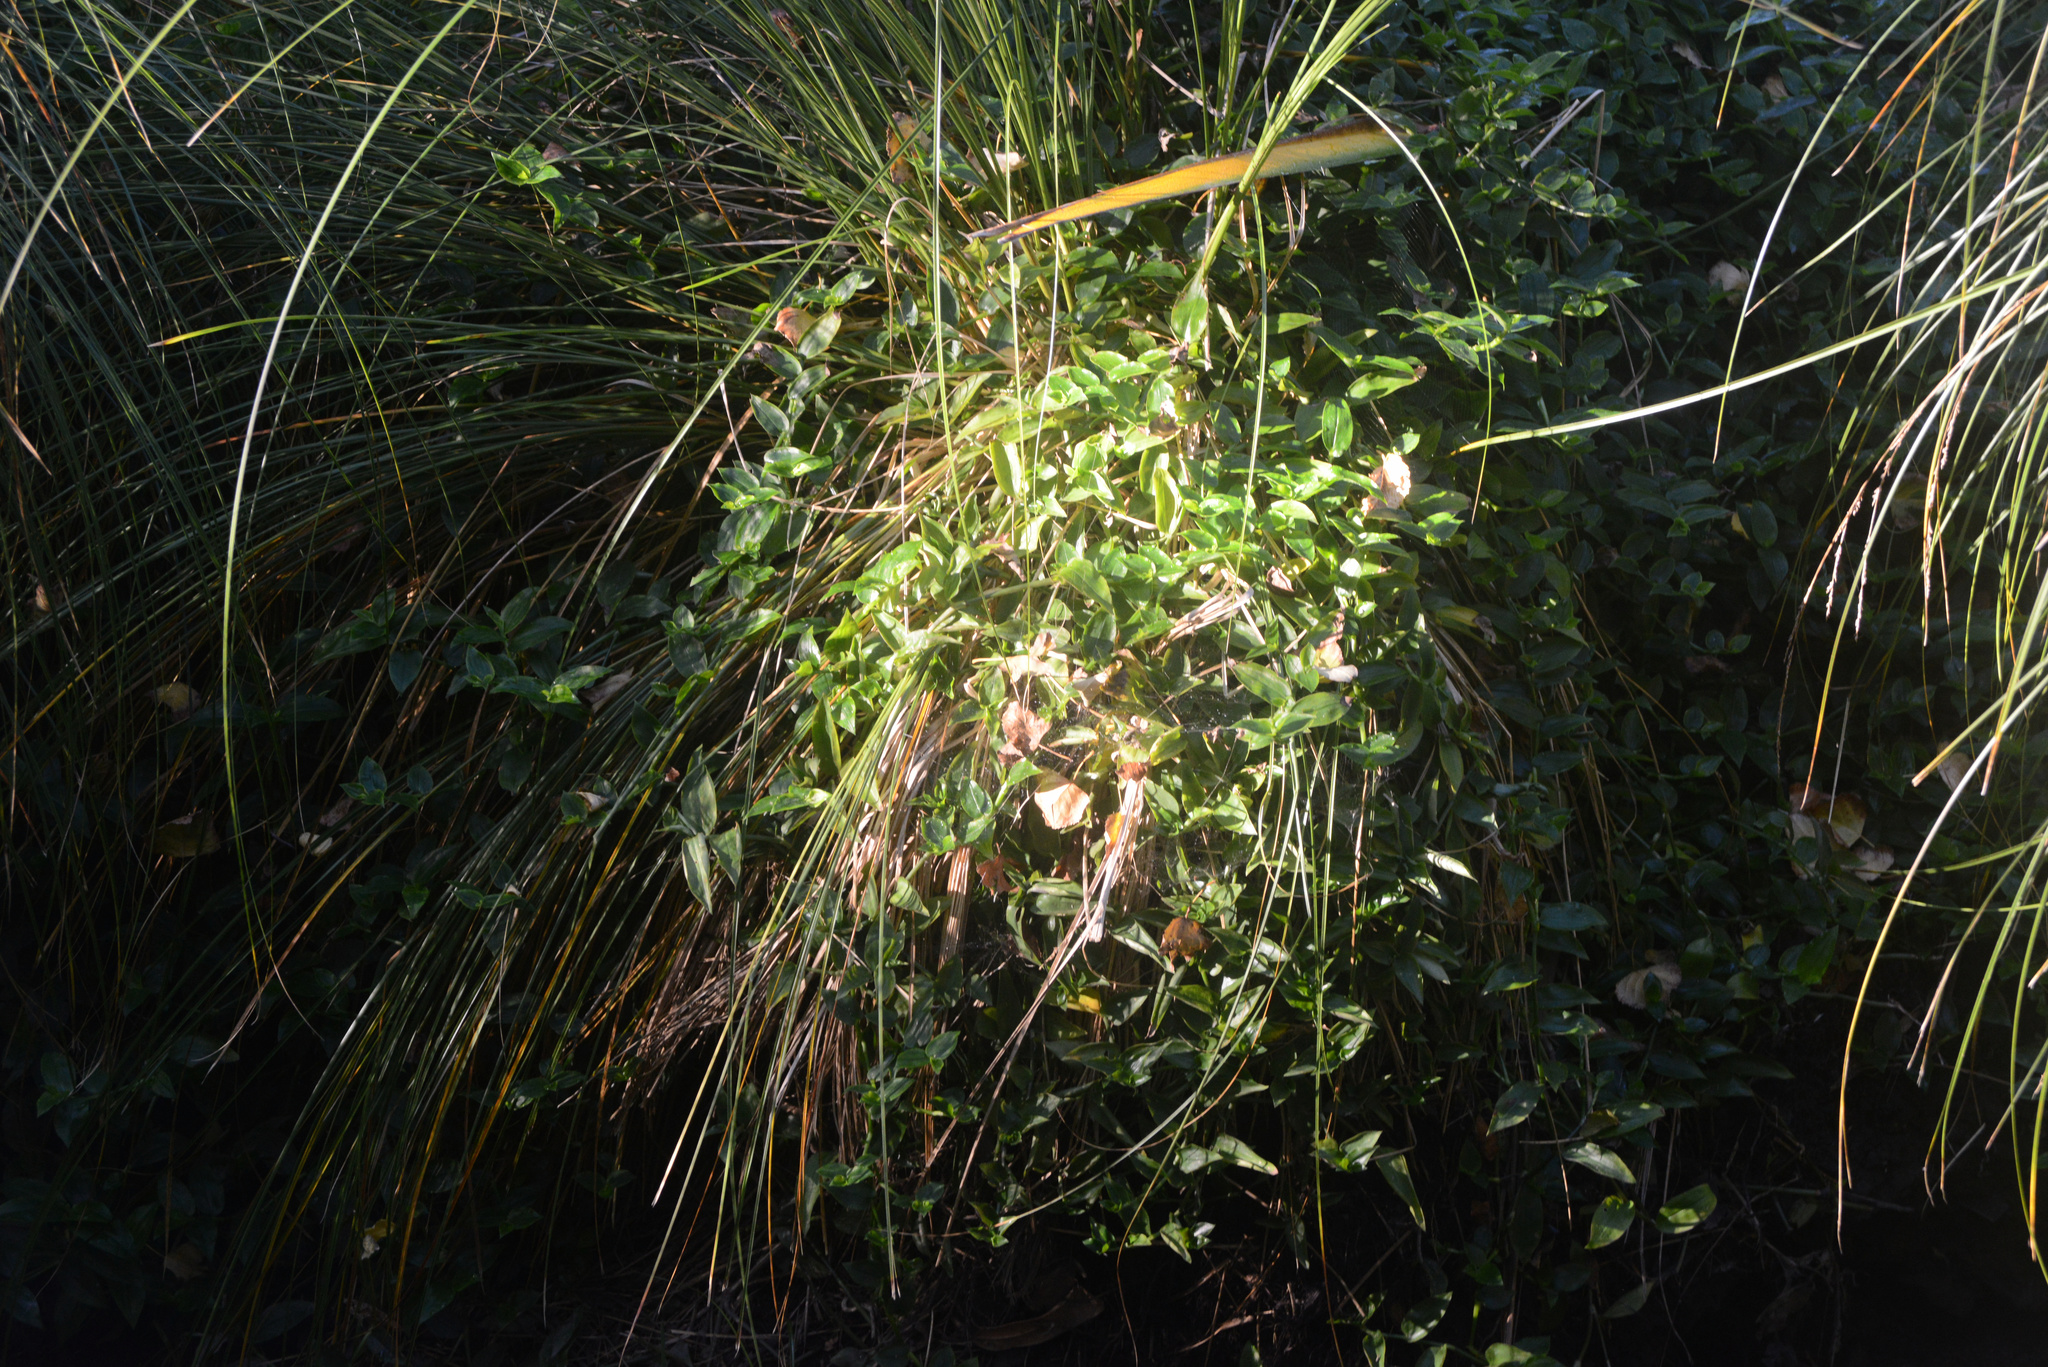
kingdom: Plantae
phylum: Tracheophyta
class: Liliopsida
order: Commelinales
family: Commelinaceae
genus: Tradescantia
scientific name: Tradescantia fluminensis
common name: Wandering-jew
